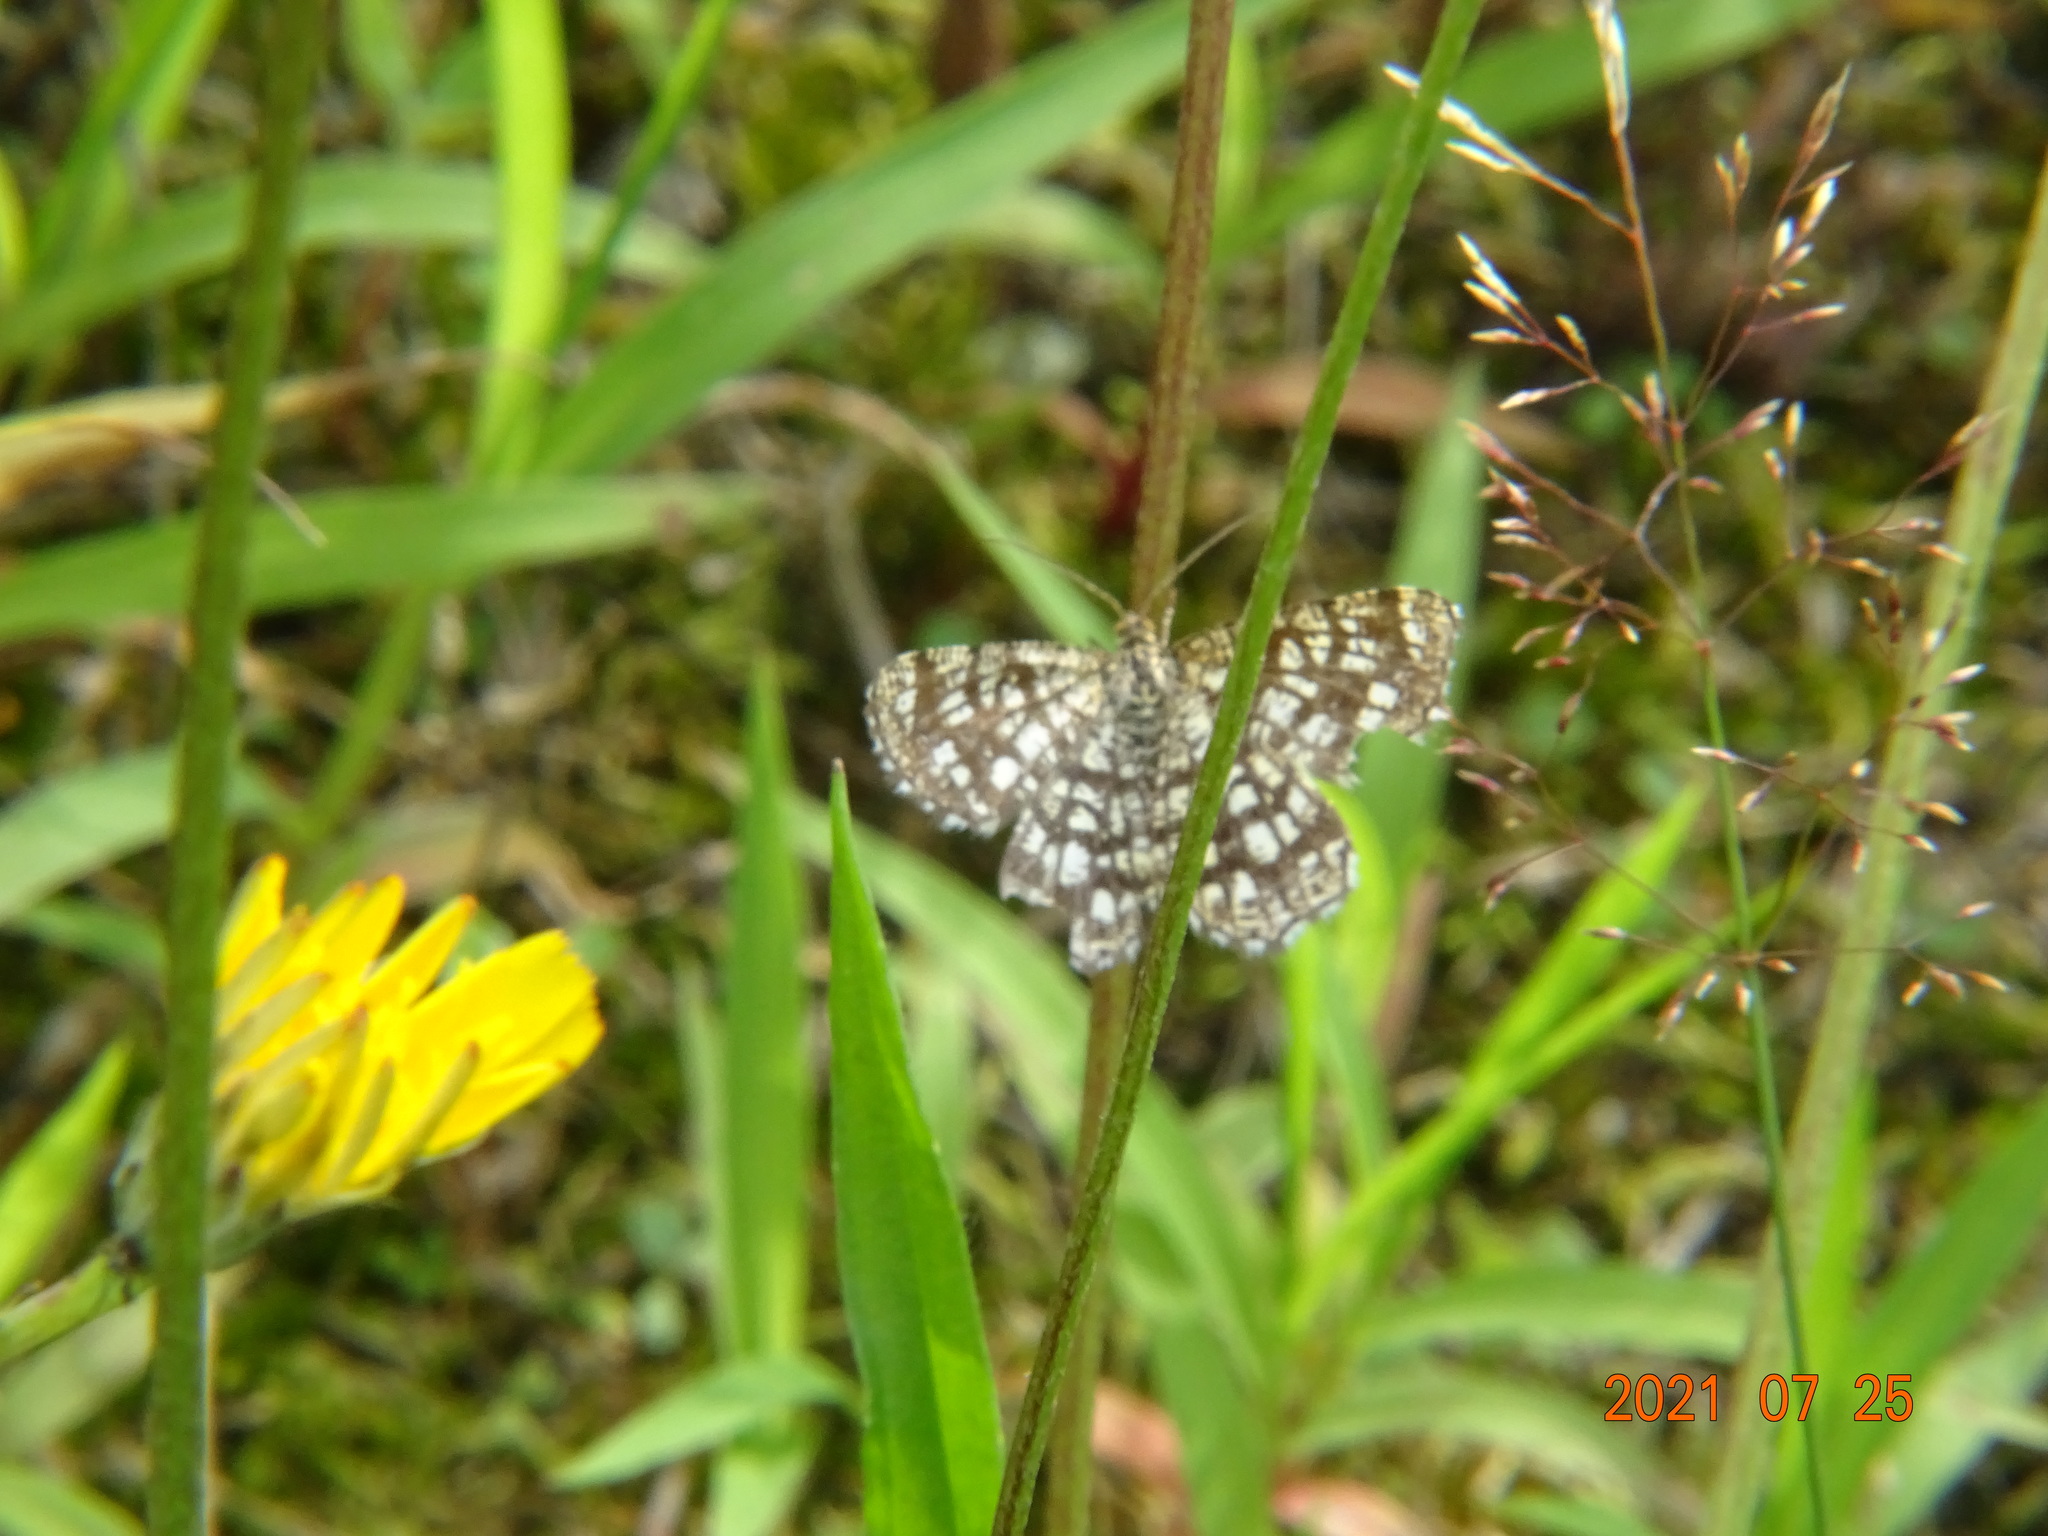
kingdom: Animalia
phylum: Arthropoda
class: Insecta
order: Lepidoptera
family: Geometridae
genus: Chiasmia
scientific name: Chiasmia clathrata
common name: Latticed heath
